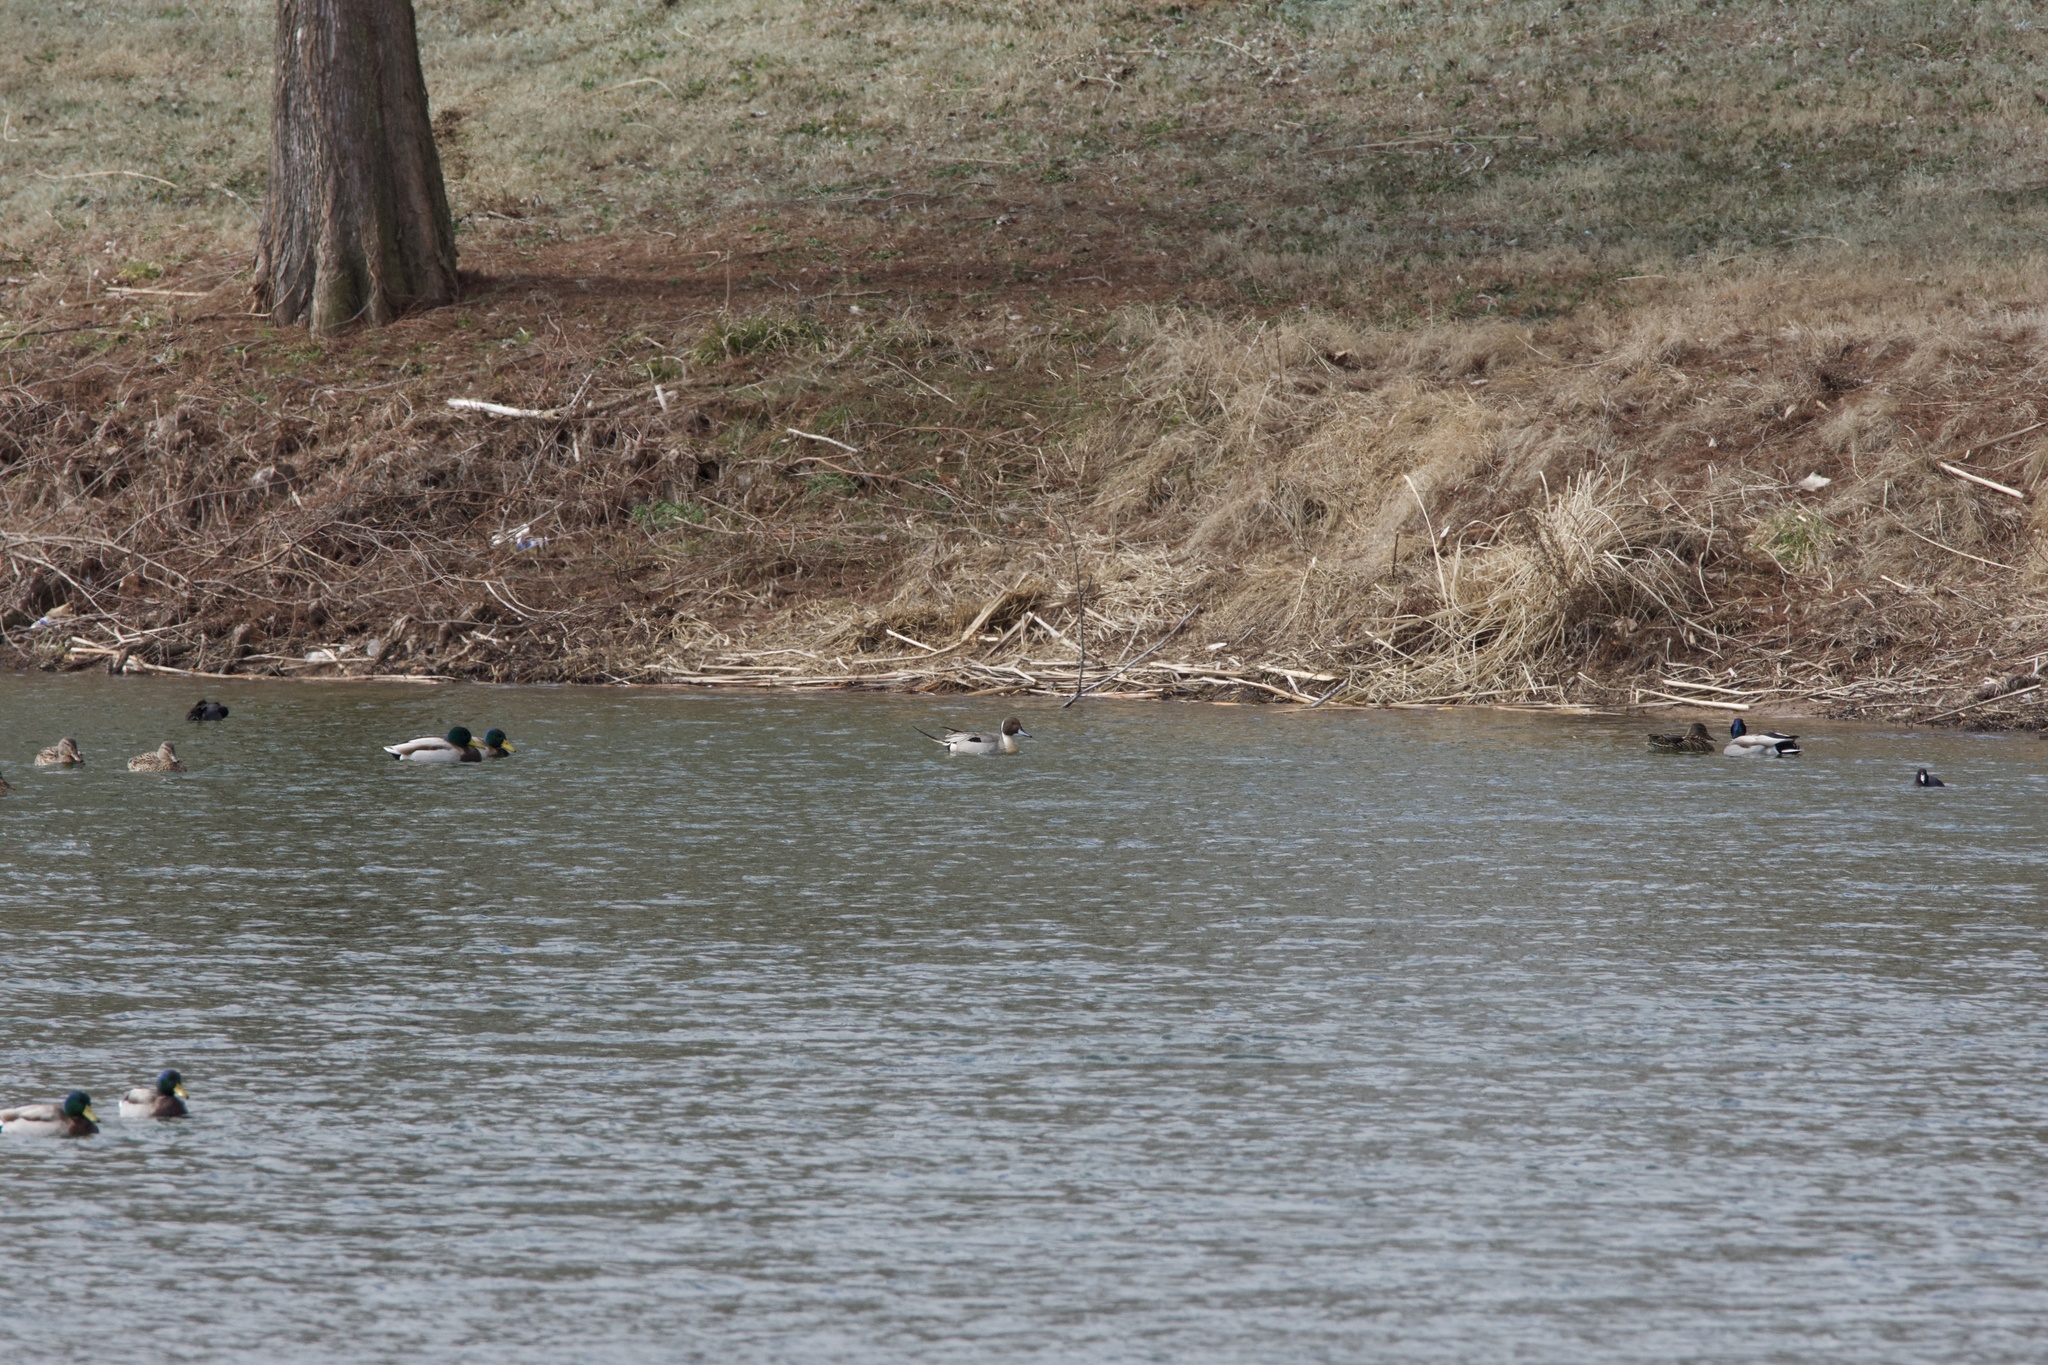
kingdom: Animalia
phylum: Chordata
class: Aves
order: Anseriformes
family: Anatidae
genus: Anas
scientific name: Anas acuta
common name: Northern pintail
